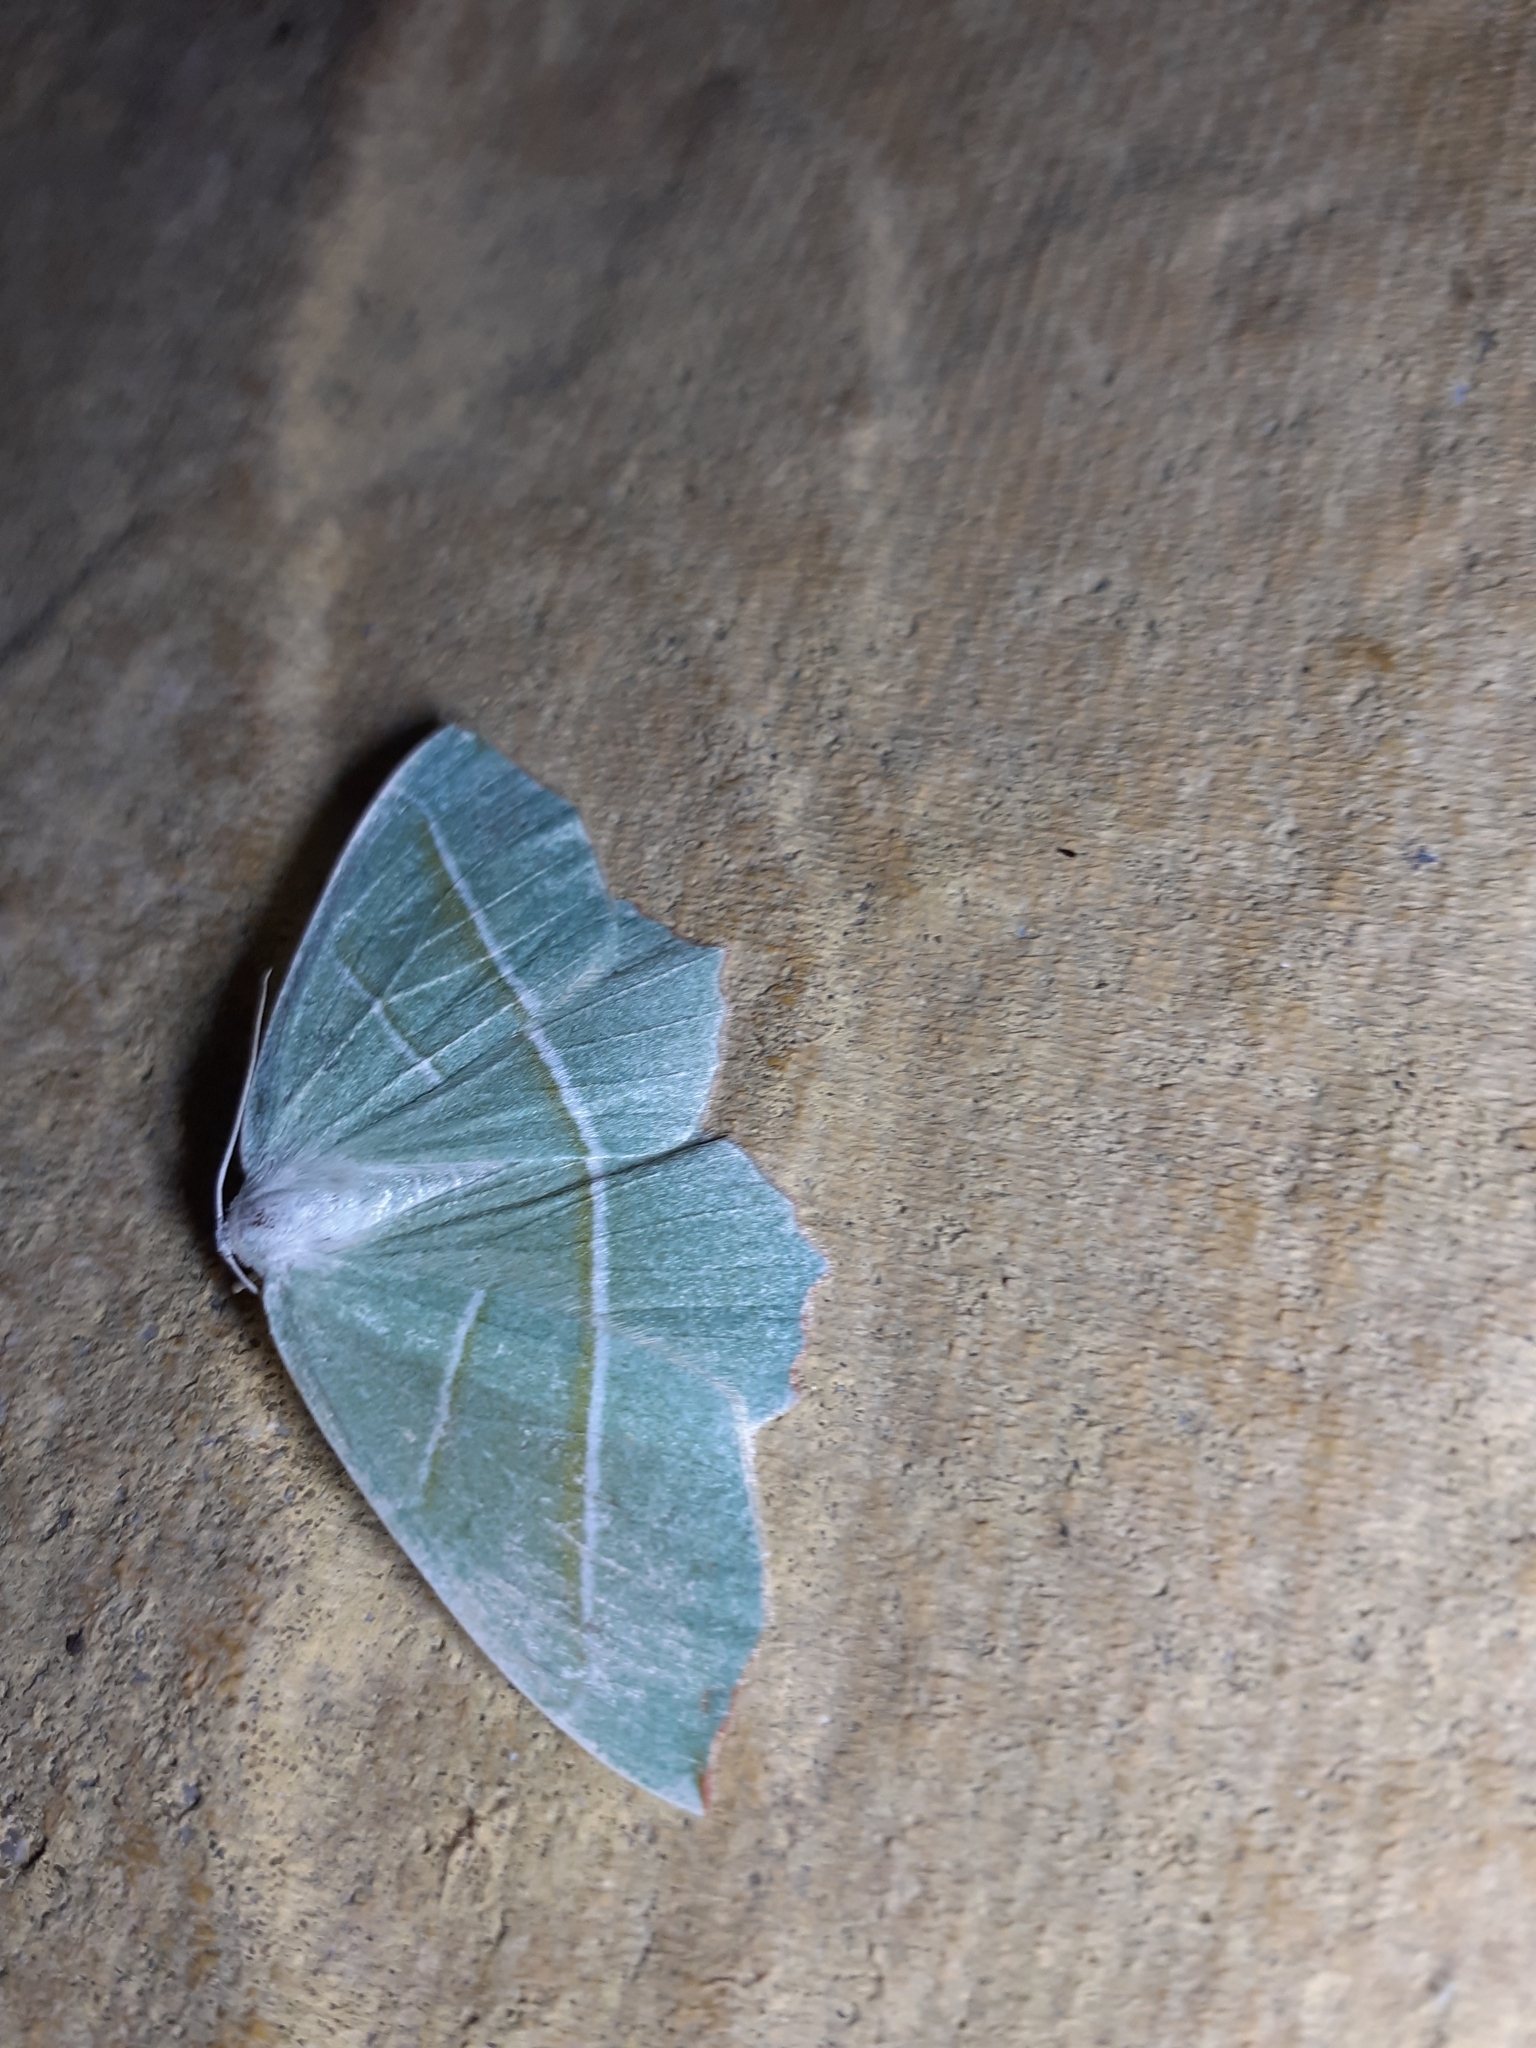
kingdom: Animalia
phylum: Arthropoda
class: Insecta
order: Lepidoptera
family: Geometridae
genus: Campaea
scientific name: Campaea margaritaria
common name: Light emerald
